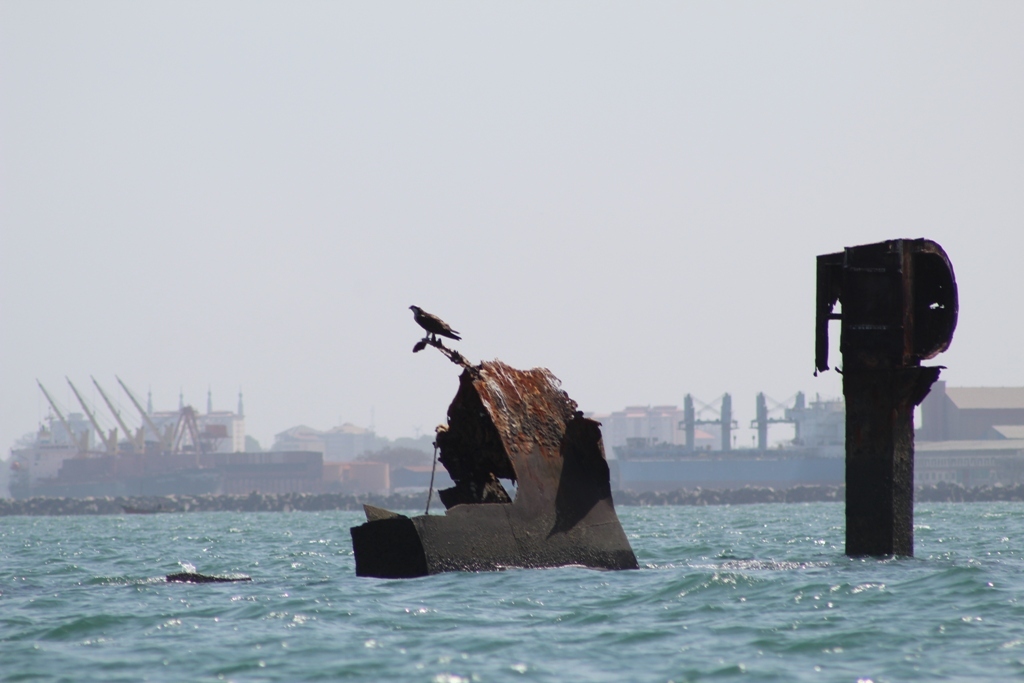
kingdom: Animalia
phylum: Chordata
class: Aves
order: Accipitriformes
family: Pandionidae
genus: Pandion
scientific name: Pandion haliaetus
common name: Osprey
